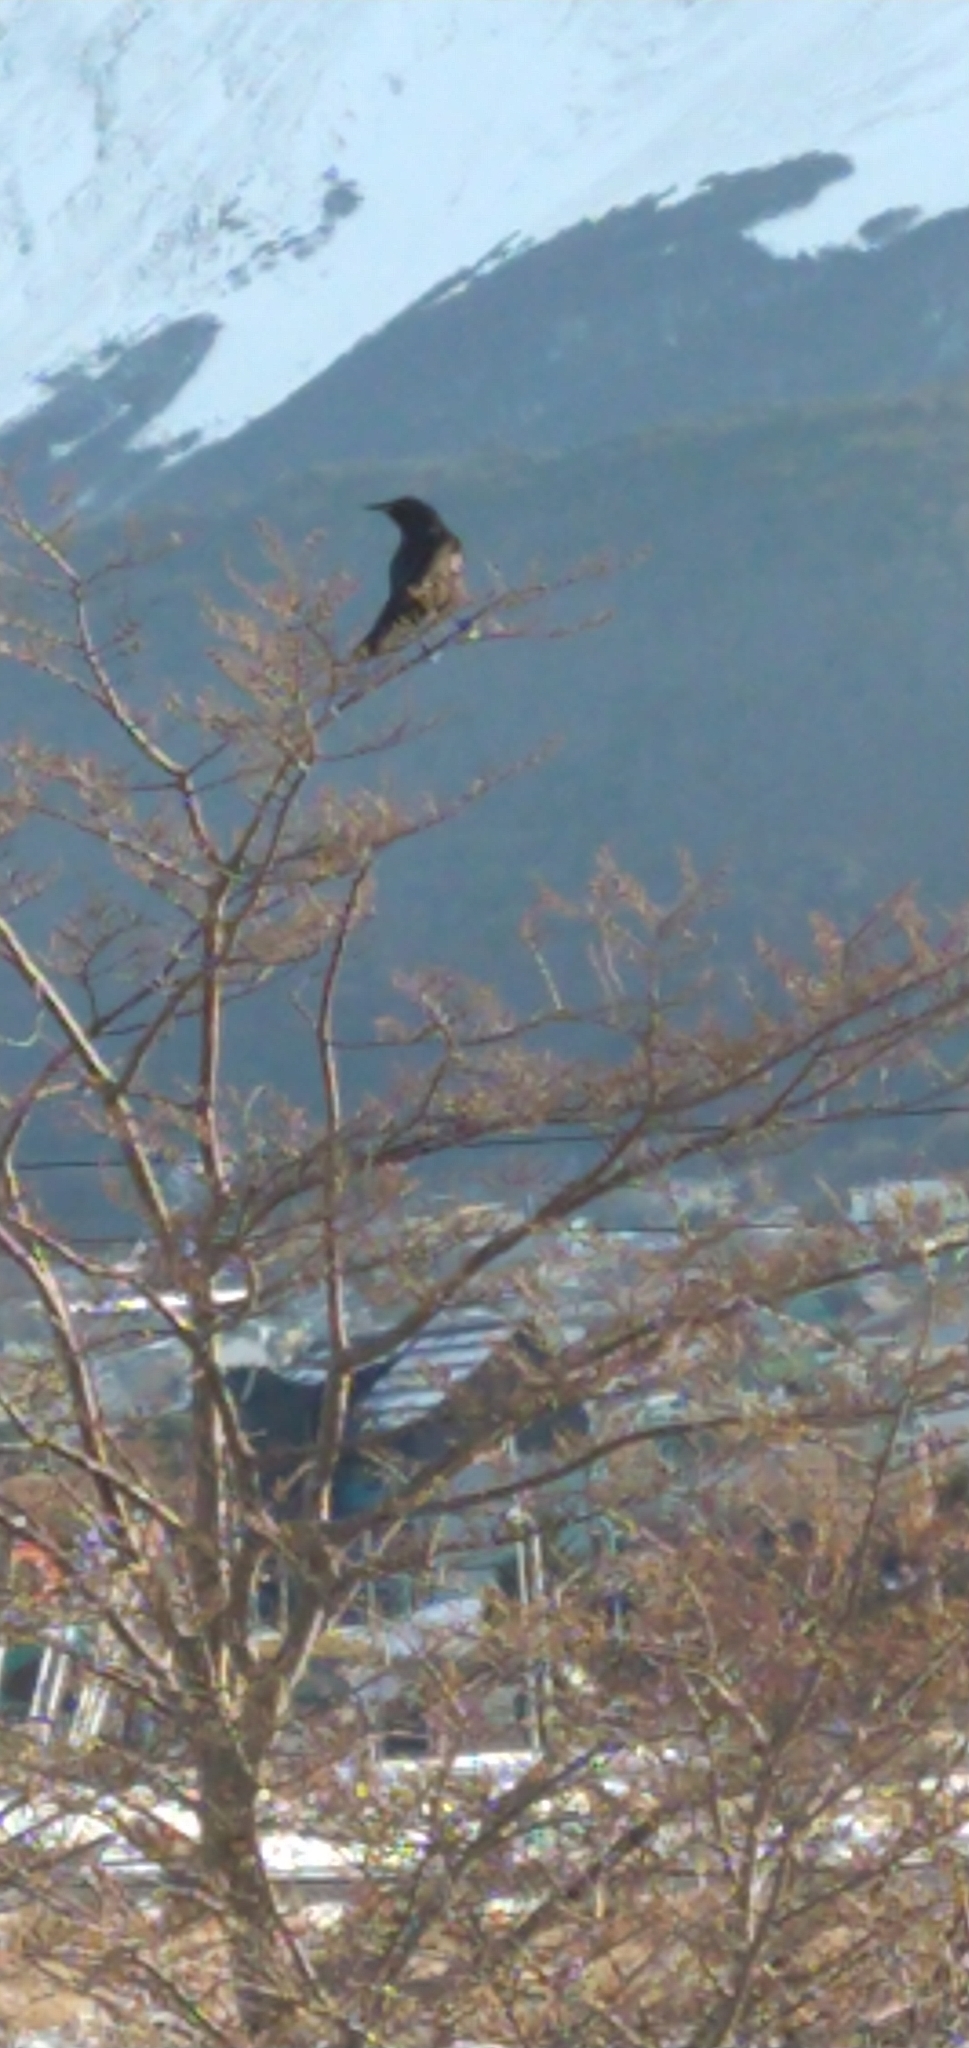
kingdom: Animalia
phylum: Chordata
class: Aves
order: Passeriformes
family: Icteridae
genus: Curaeus
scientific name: Curaeus curaeus
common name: Austral blackbird
